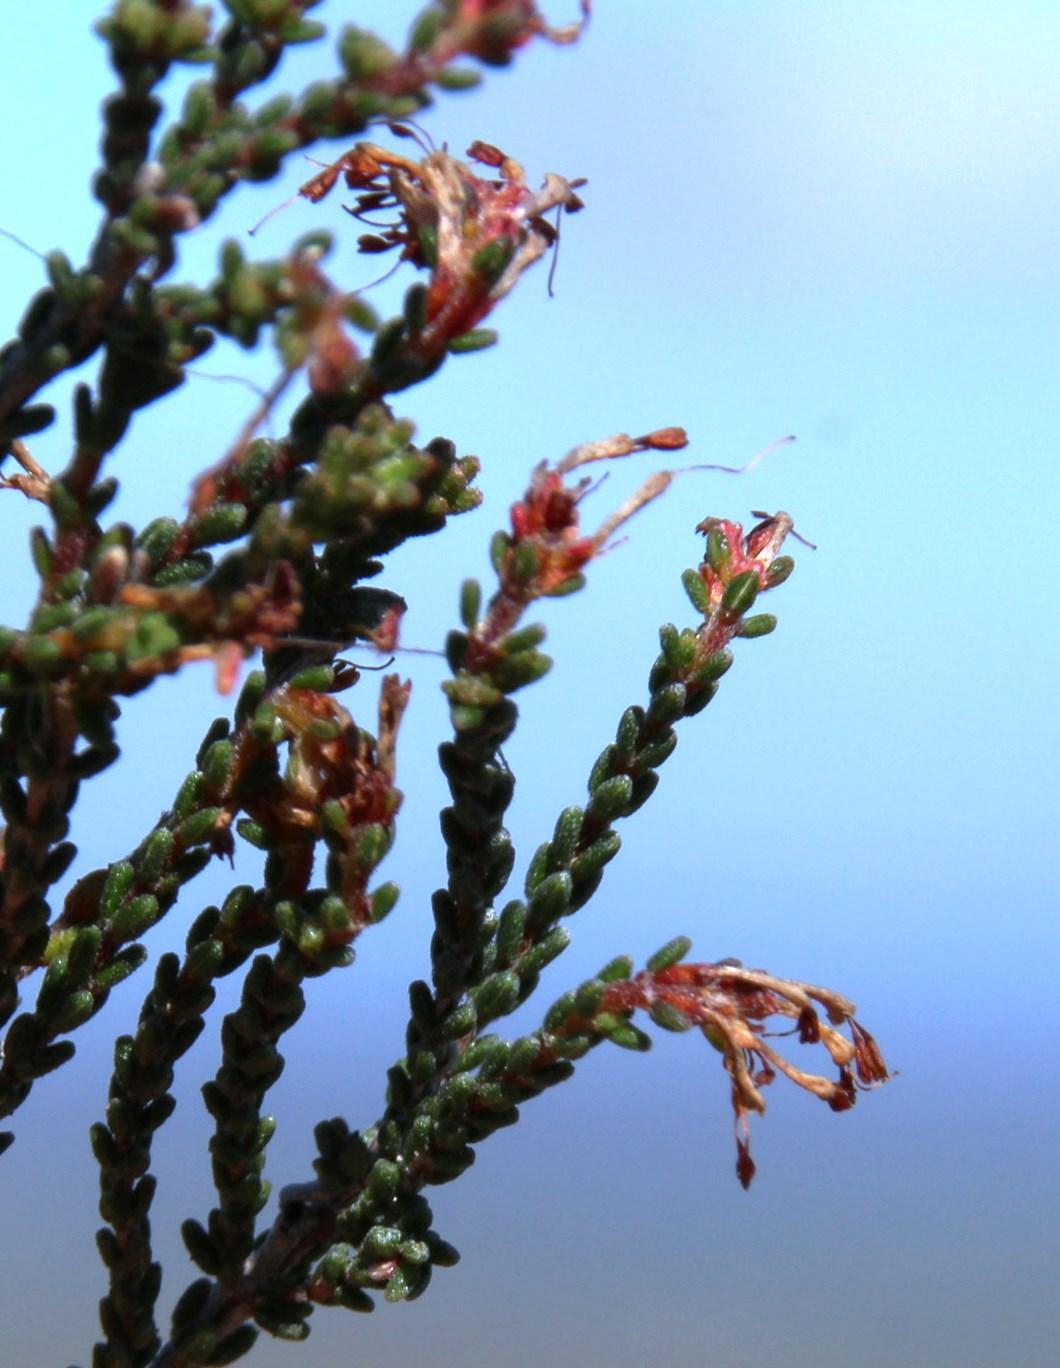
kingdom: Plantae
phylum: Tracheophyta
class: Magnoliopsida
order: Ericales
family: Ericaceae
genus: Erica
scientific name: Erica venustiflora
